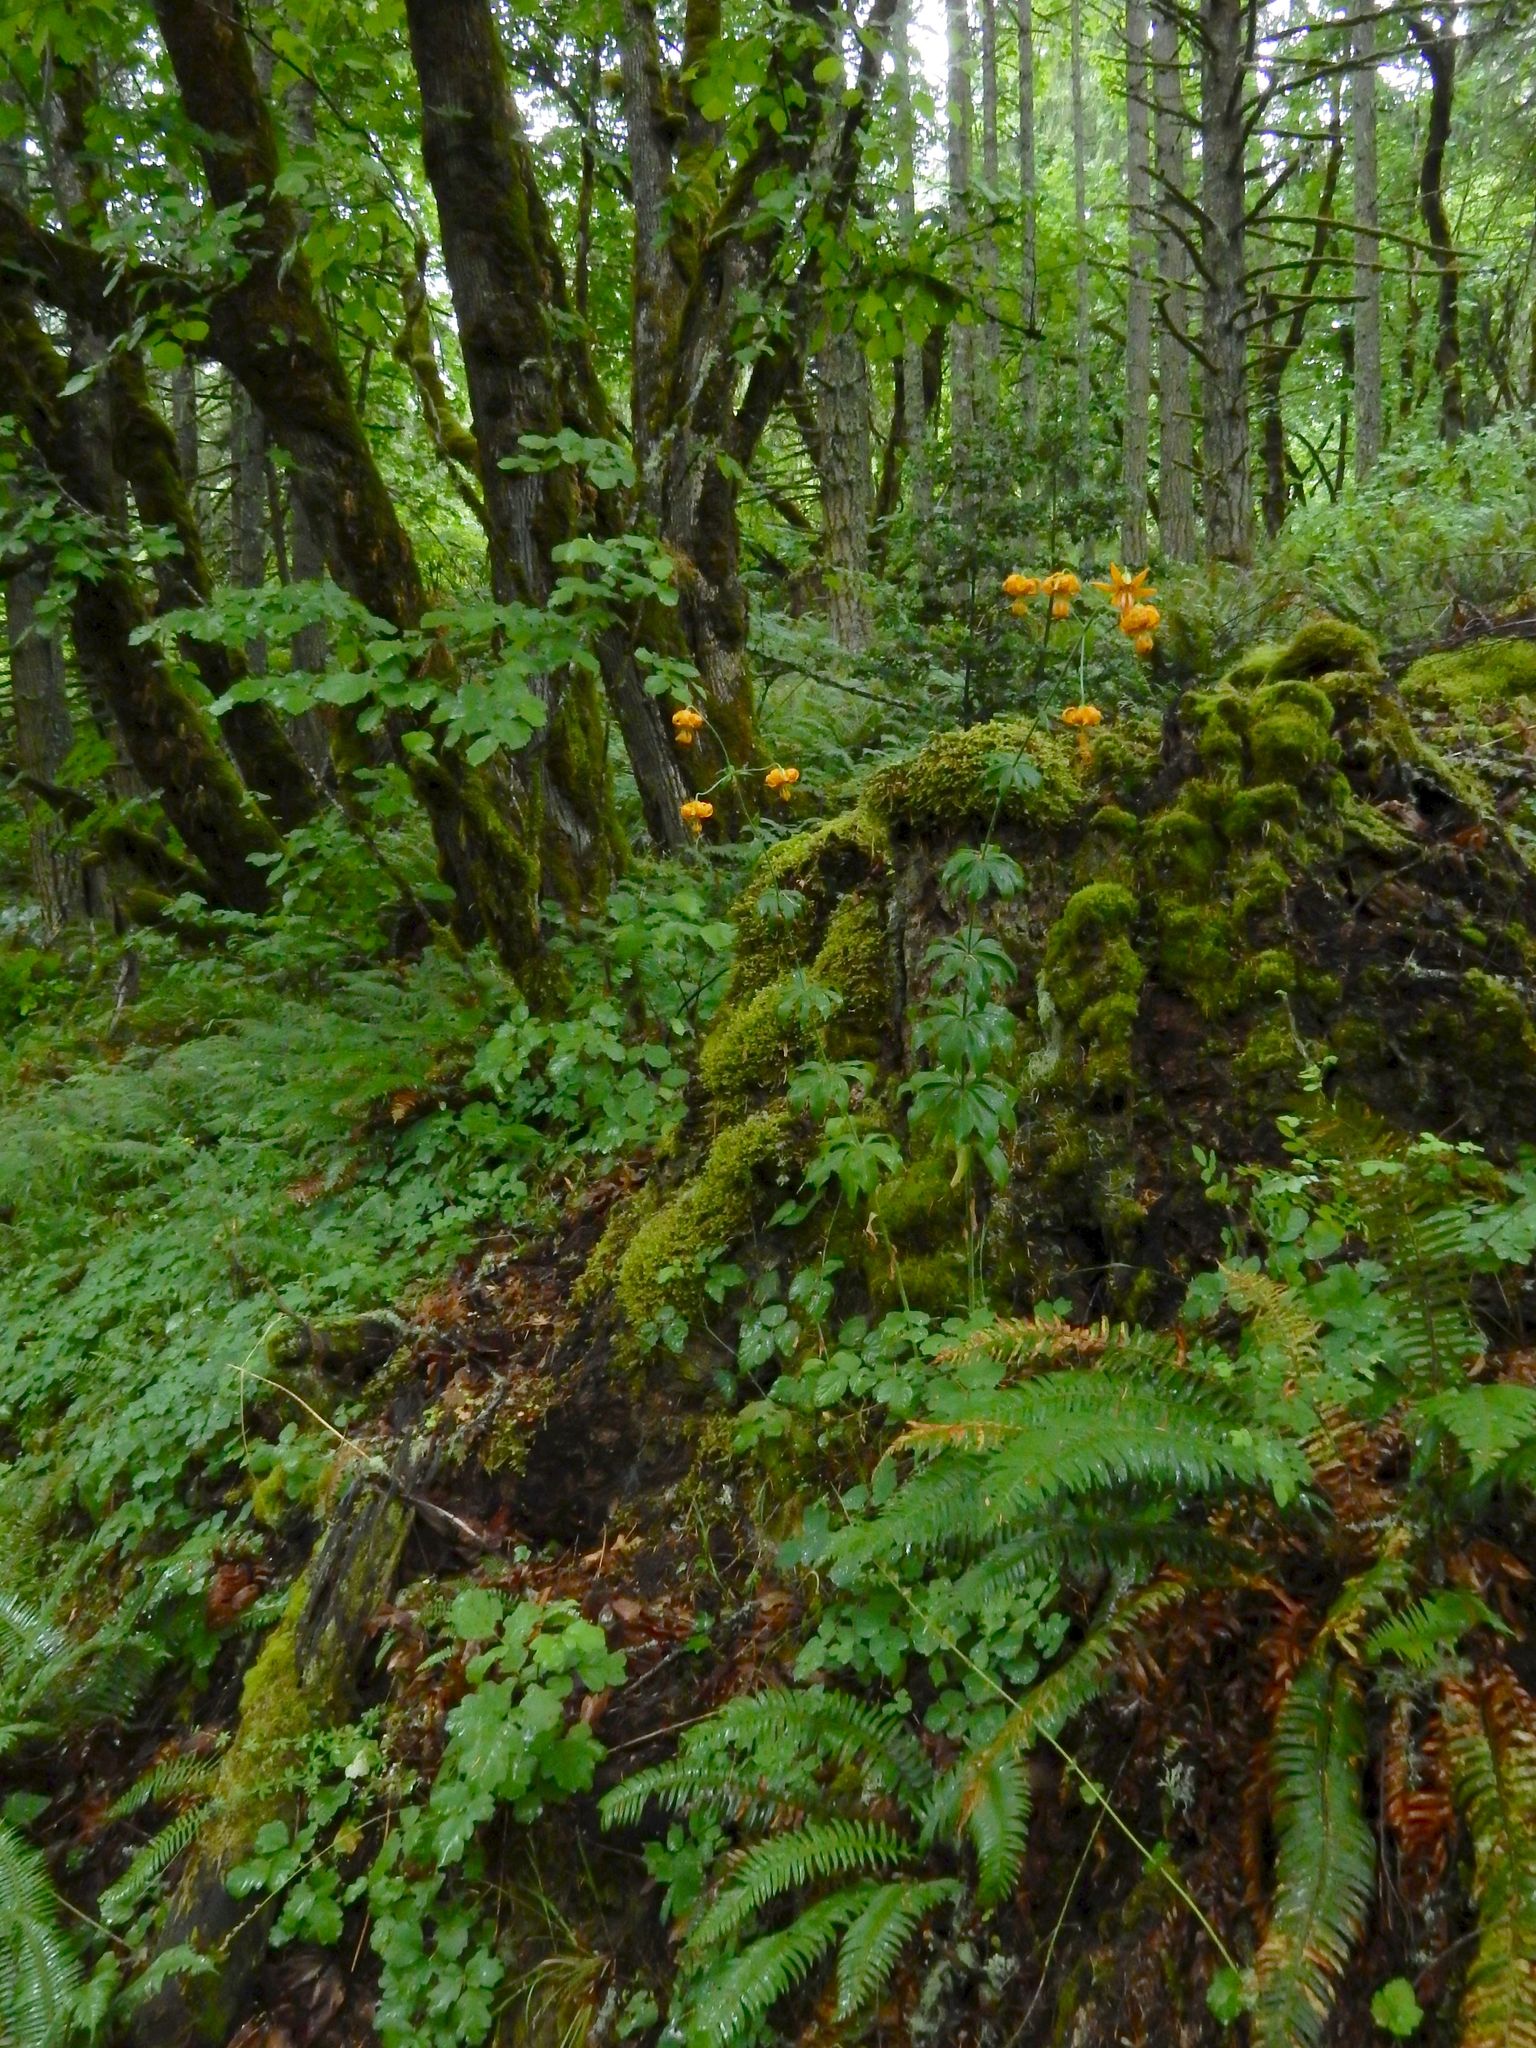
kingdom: Plantae
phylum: Tracheophyta
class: Liliopsida
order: Liliales
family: Liliaceae
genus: Lilium
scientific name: Lilium columbianum
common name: Columbia lily
